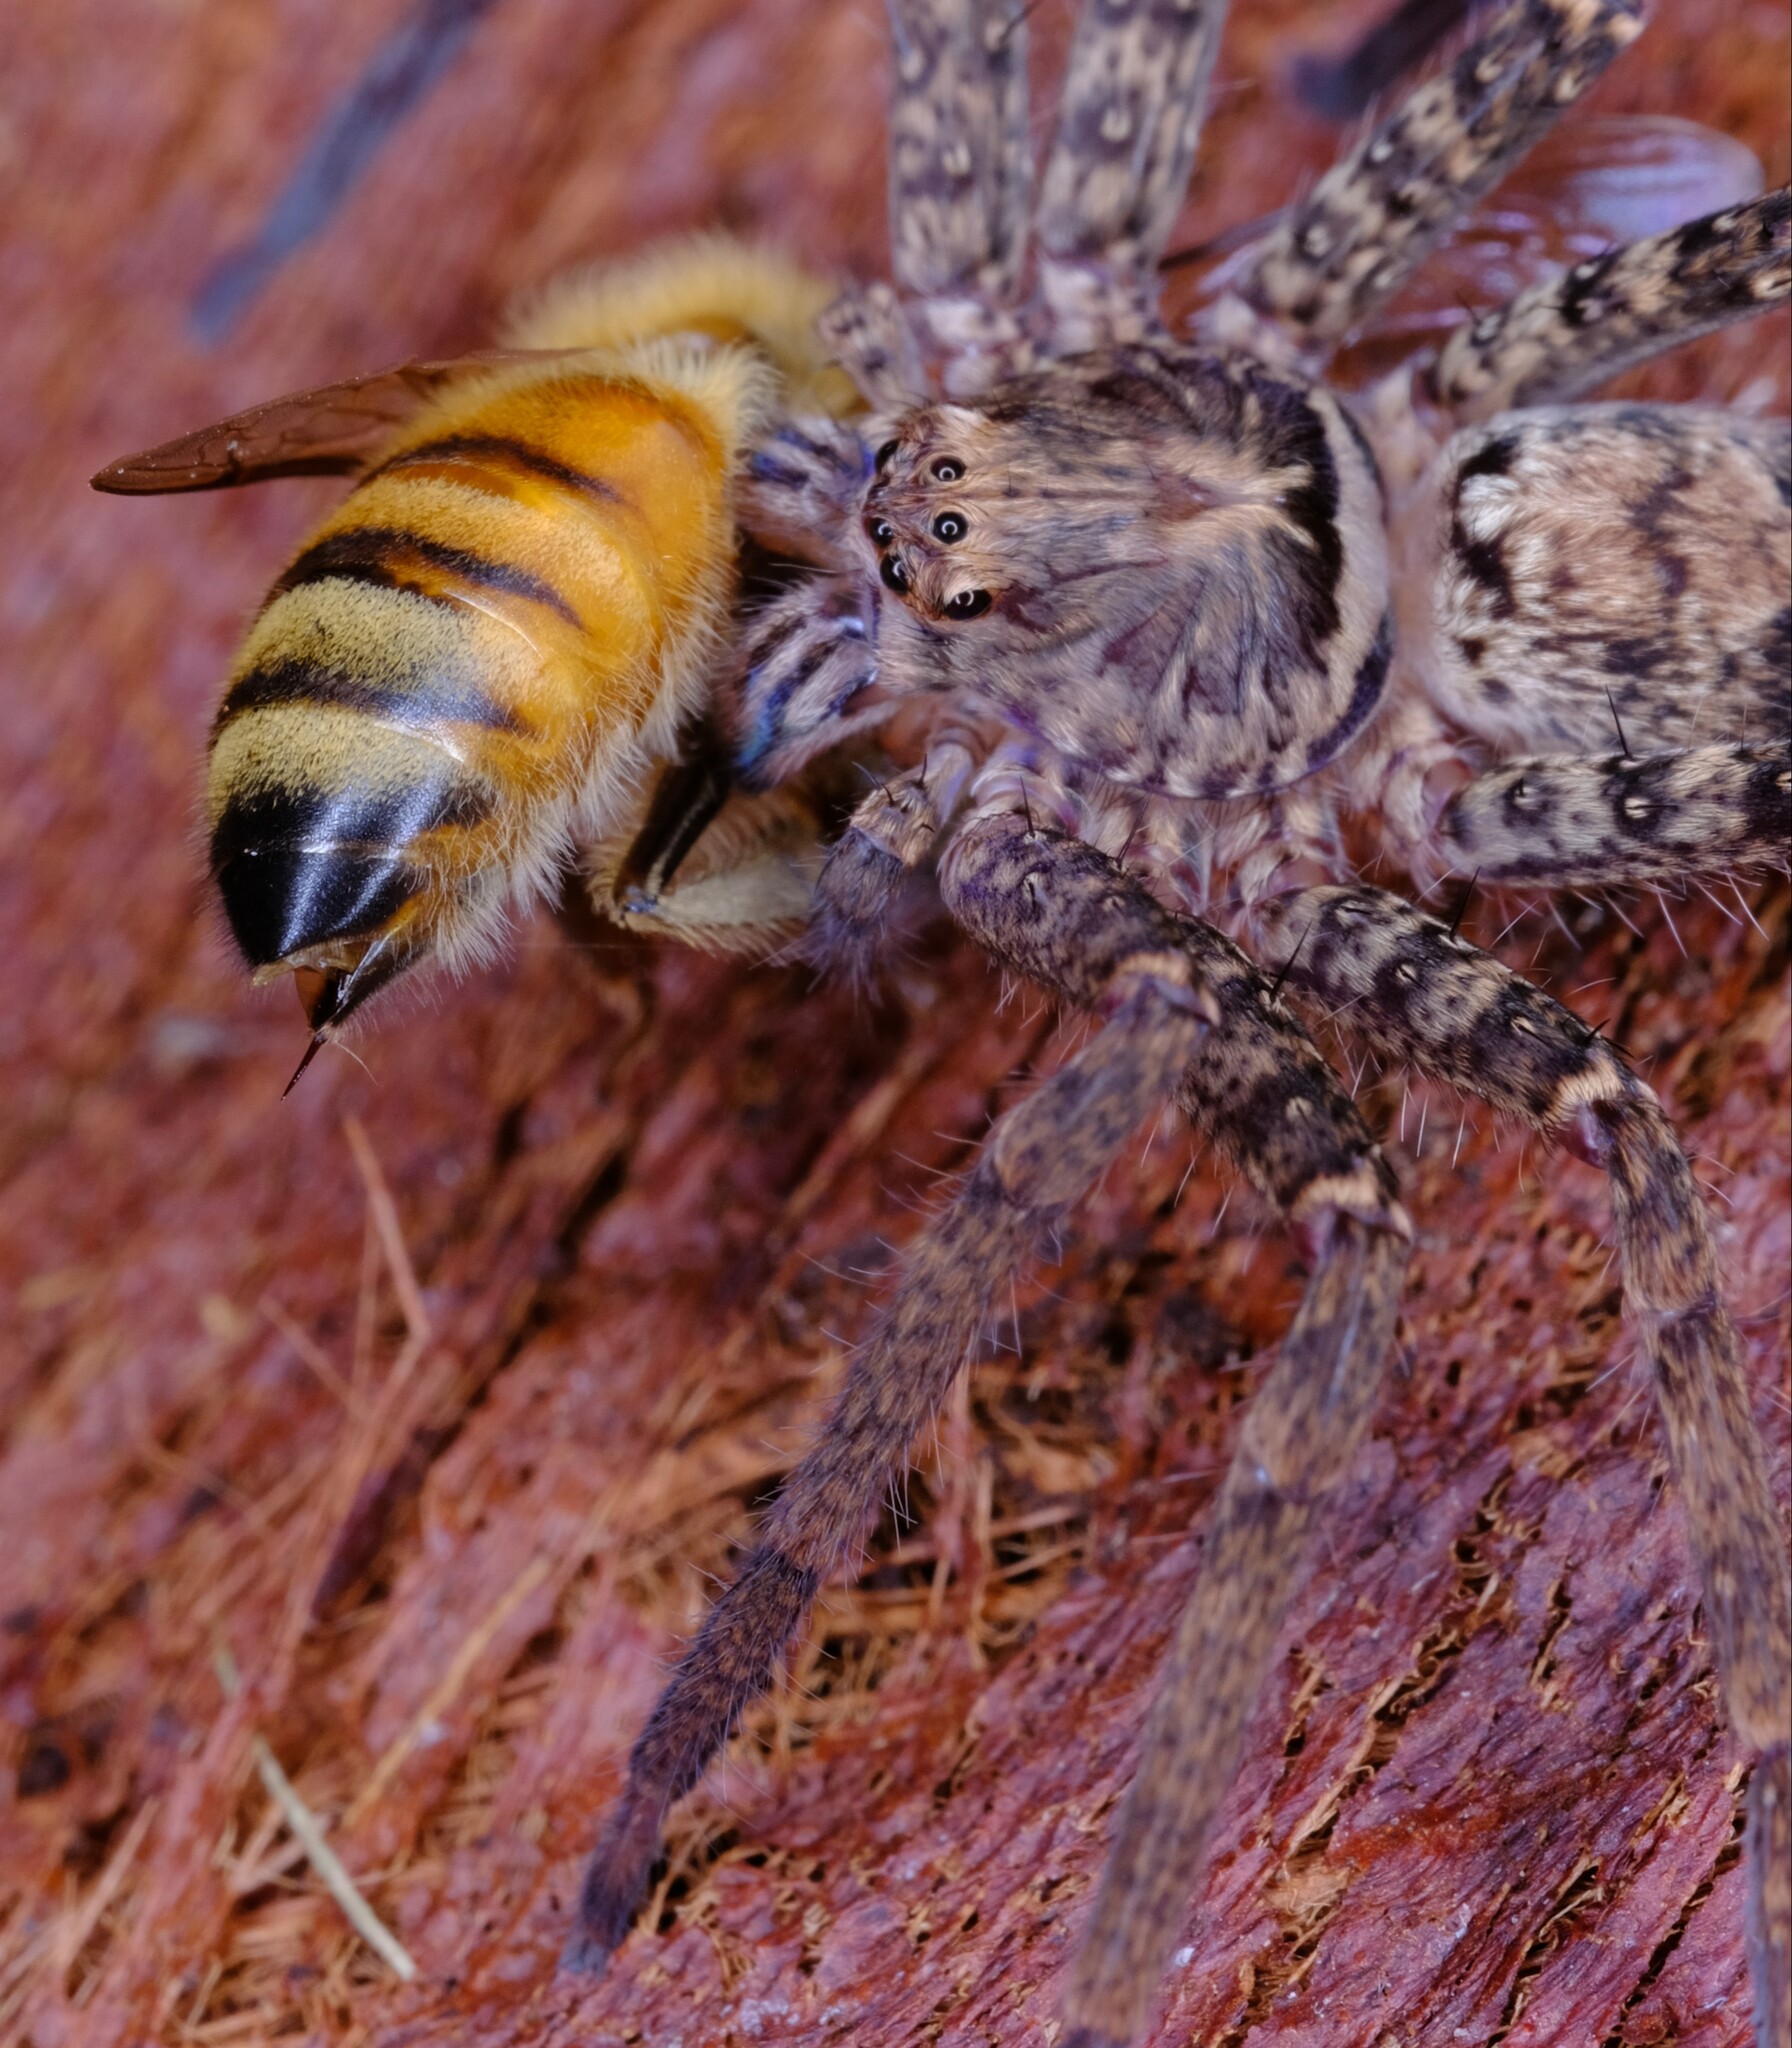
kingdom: Animalia
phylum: Arthropoda
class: Insecta
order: Hymenoptera
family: Apidae
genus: Apis
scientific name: Apis mellifera
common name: Honey bee
